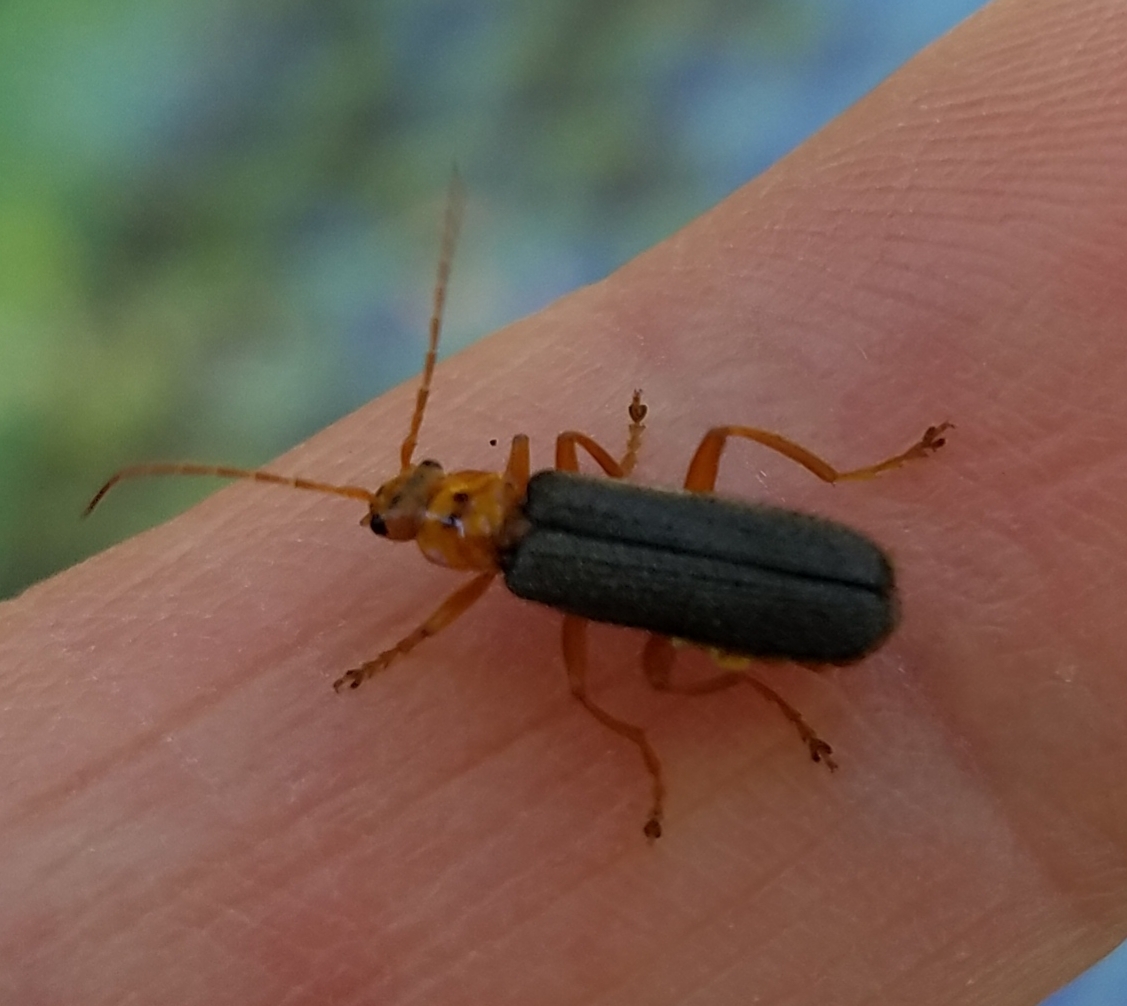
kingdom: Animalia
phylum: Arthropoda
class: Insecta
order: Coleoptera
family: Cantharidae
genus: Cultellunguis
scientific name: Cultellunguis americanus
